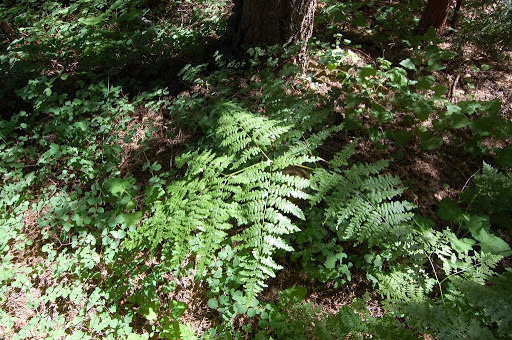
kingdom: Plantae
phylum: Tracheophyta
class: Polypodiopsida
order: Polypodiales
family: Dennstaedtiaceae
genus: Pteridium
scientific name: Pteridium aquilinum
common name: Bracken
